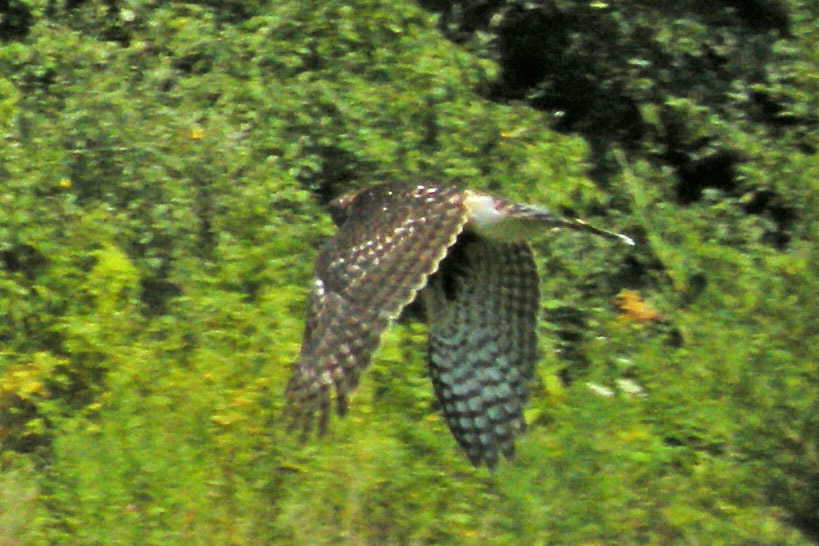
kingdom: Animalia
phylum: Chordata
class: Aves
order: Accipitriformes
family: Accipitridae
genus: Accipiter
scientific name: Accipiter cooperii
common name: Cooper's hawk
